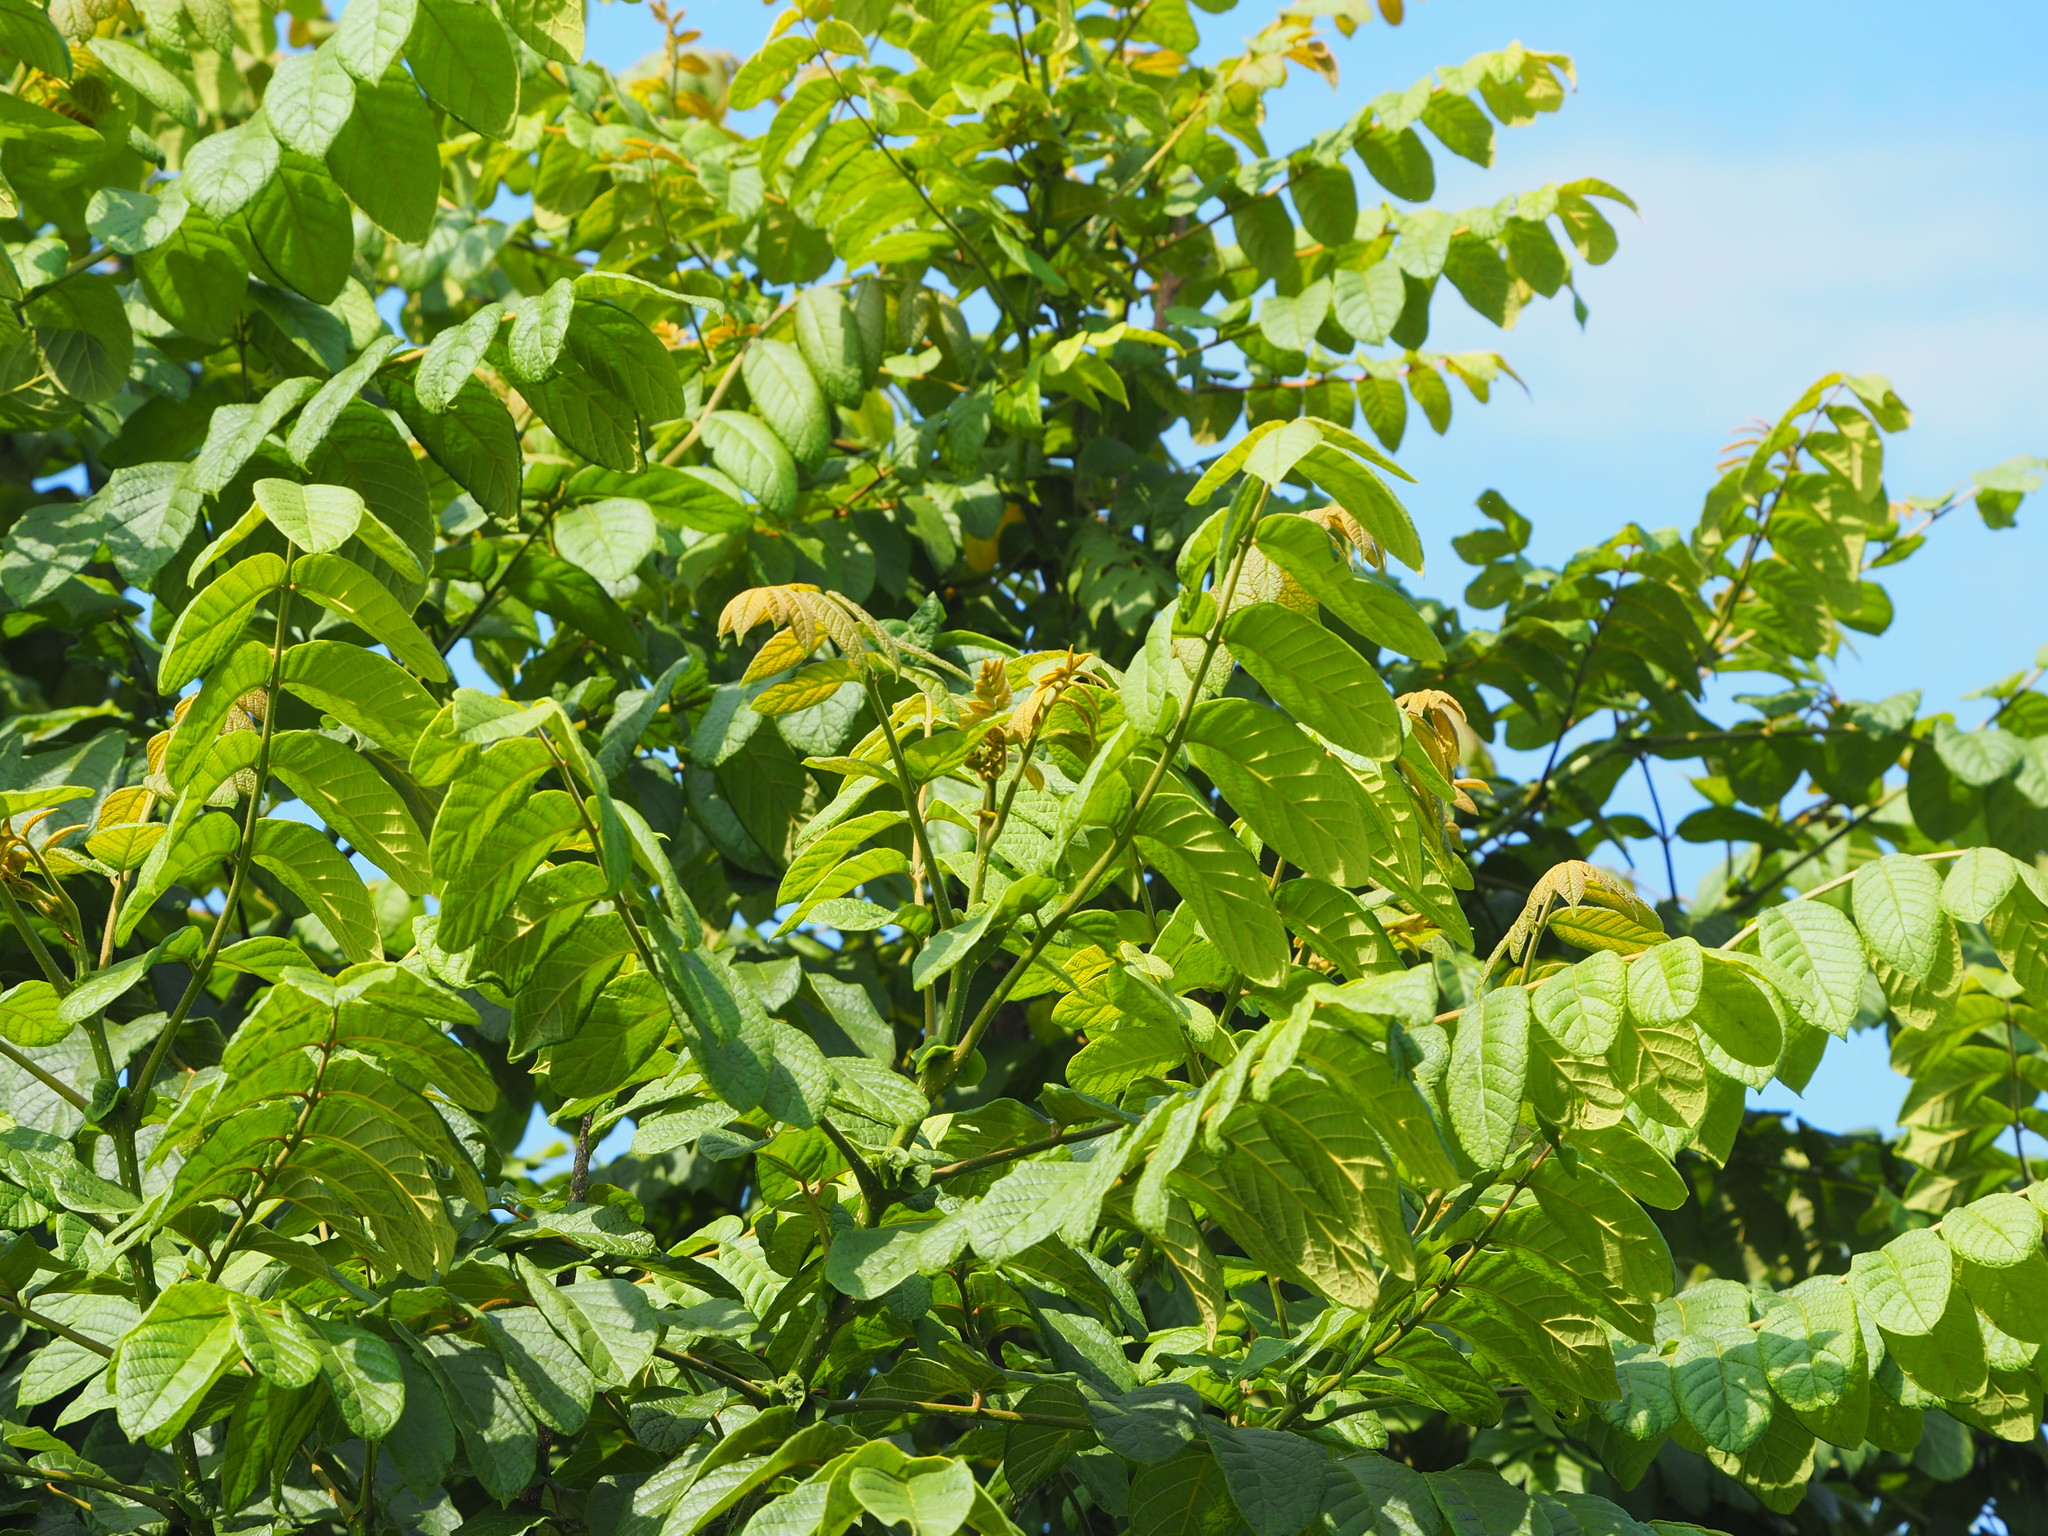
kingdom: Plantae
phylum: Tracheophyta
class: Magnoliopsida
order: Lamiales
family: Bignoniaceae
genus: Spathodea
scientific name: Spathodea campanulata
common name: African tuliptree
